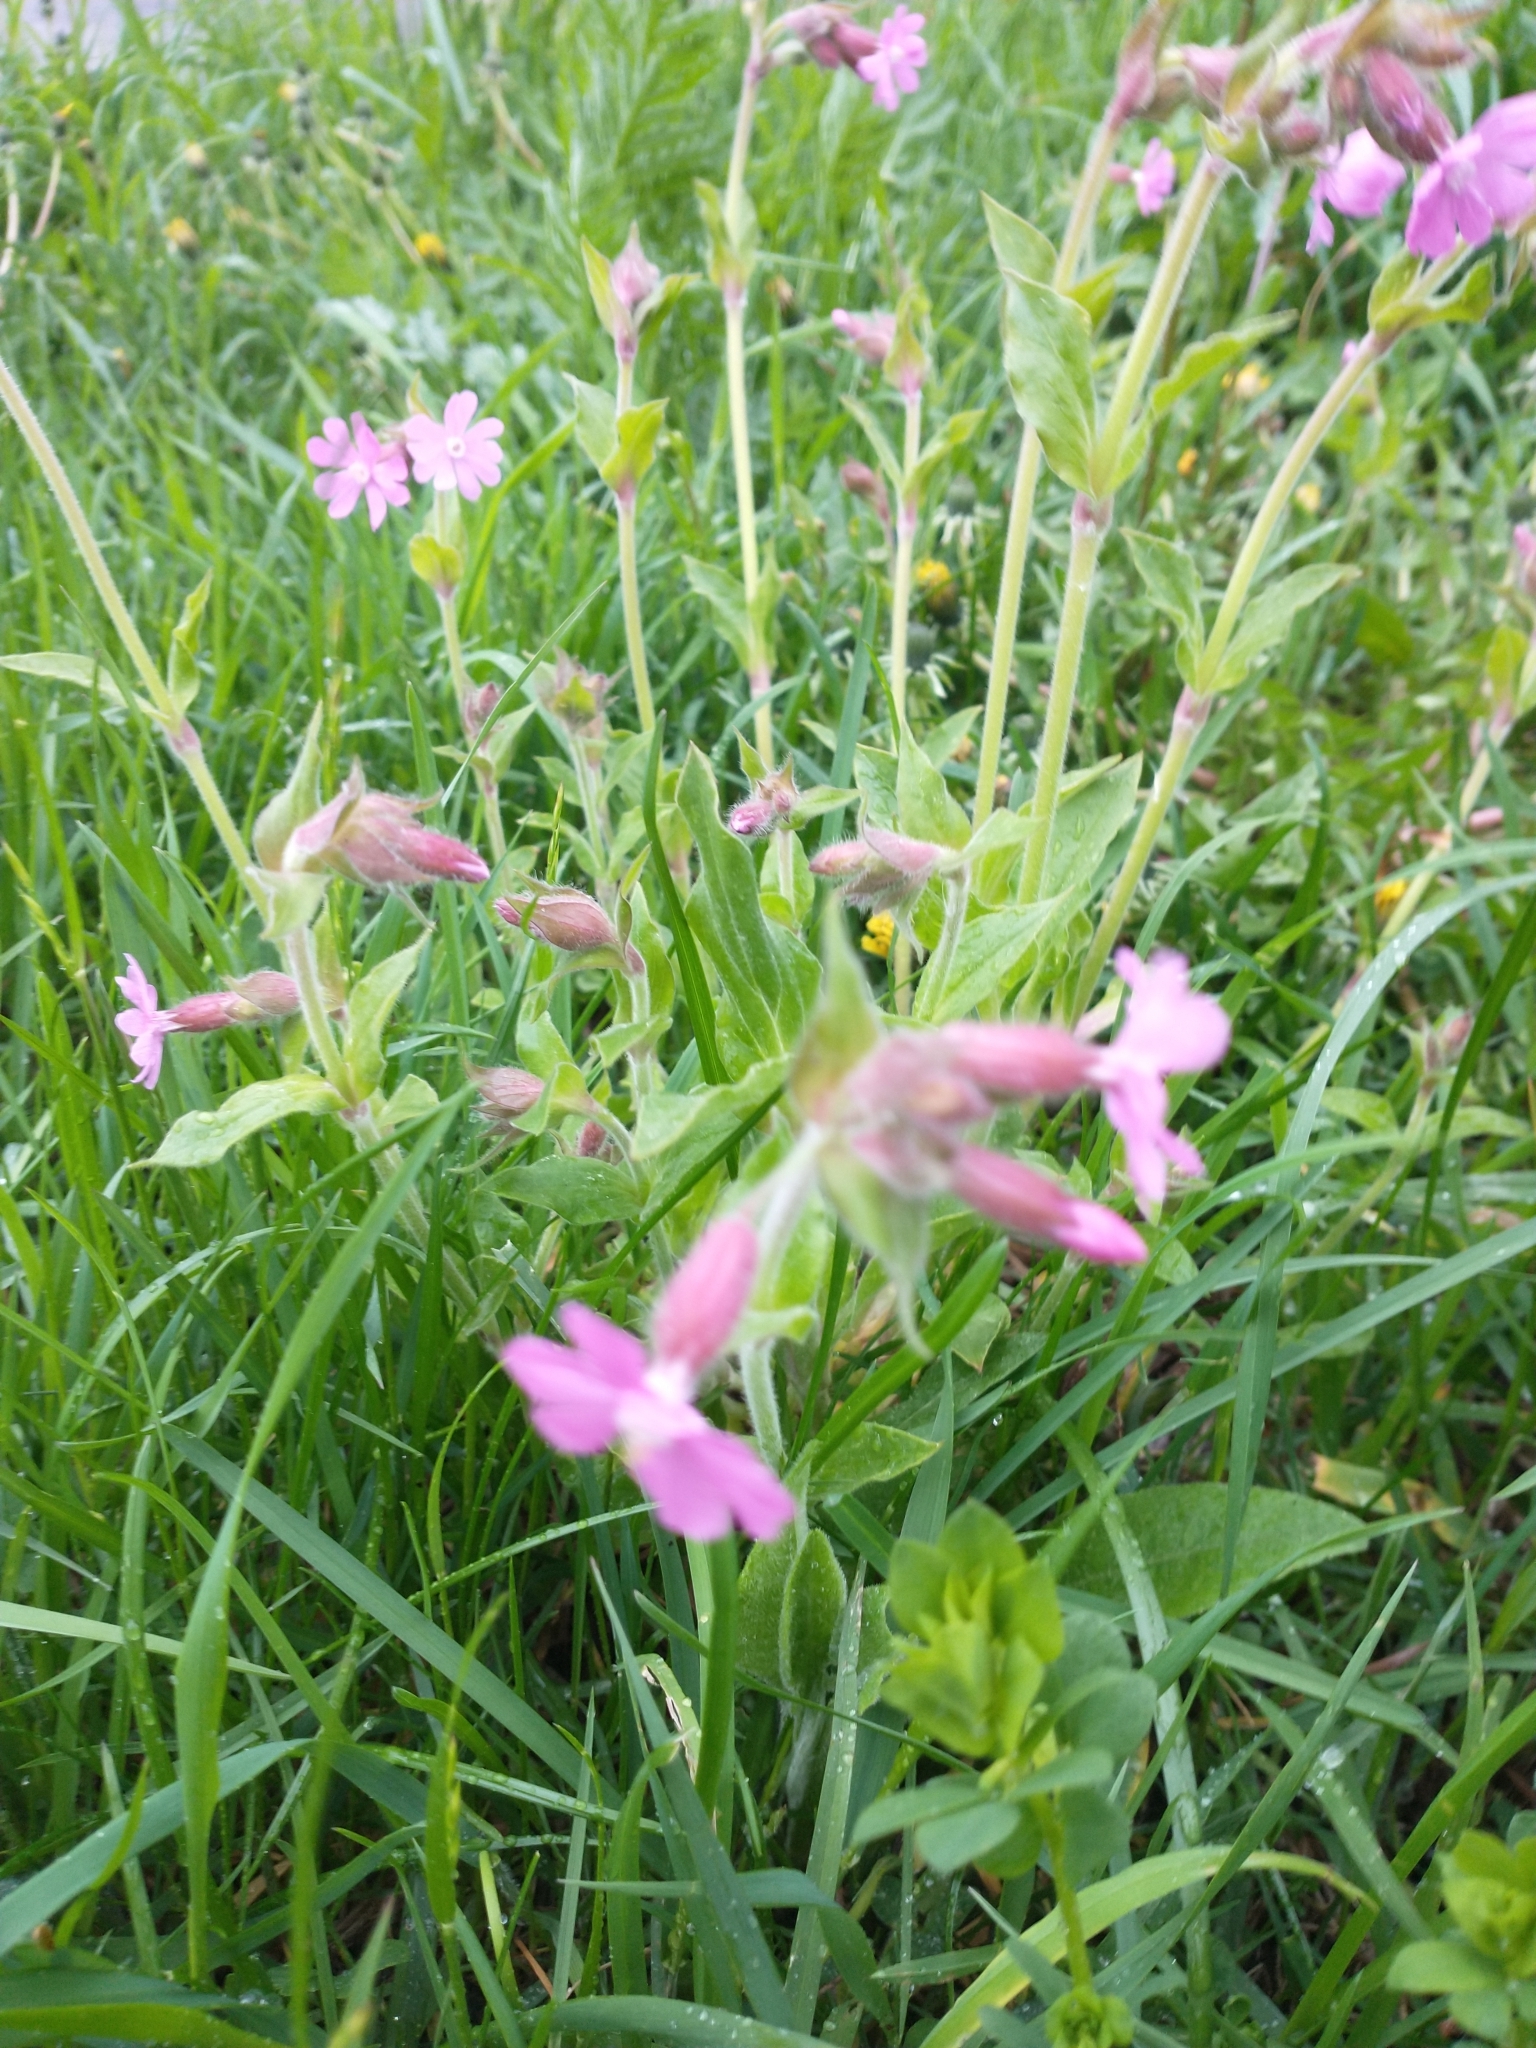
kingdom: Plantae
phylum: Tracheophyta
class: Magnoliopsida
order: Caryophyllales
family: Caryophyllaceae
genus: Silene
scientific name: Silene dioica
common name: Red campion
